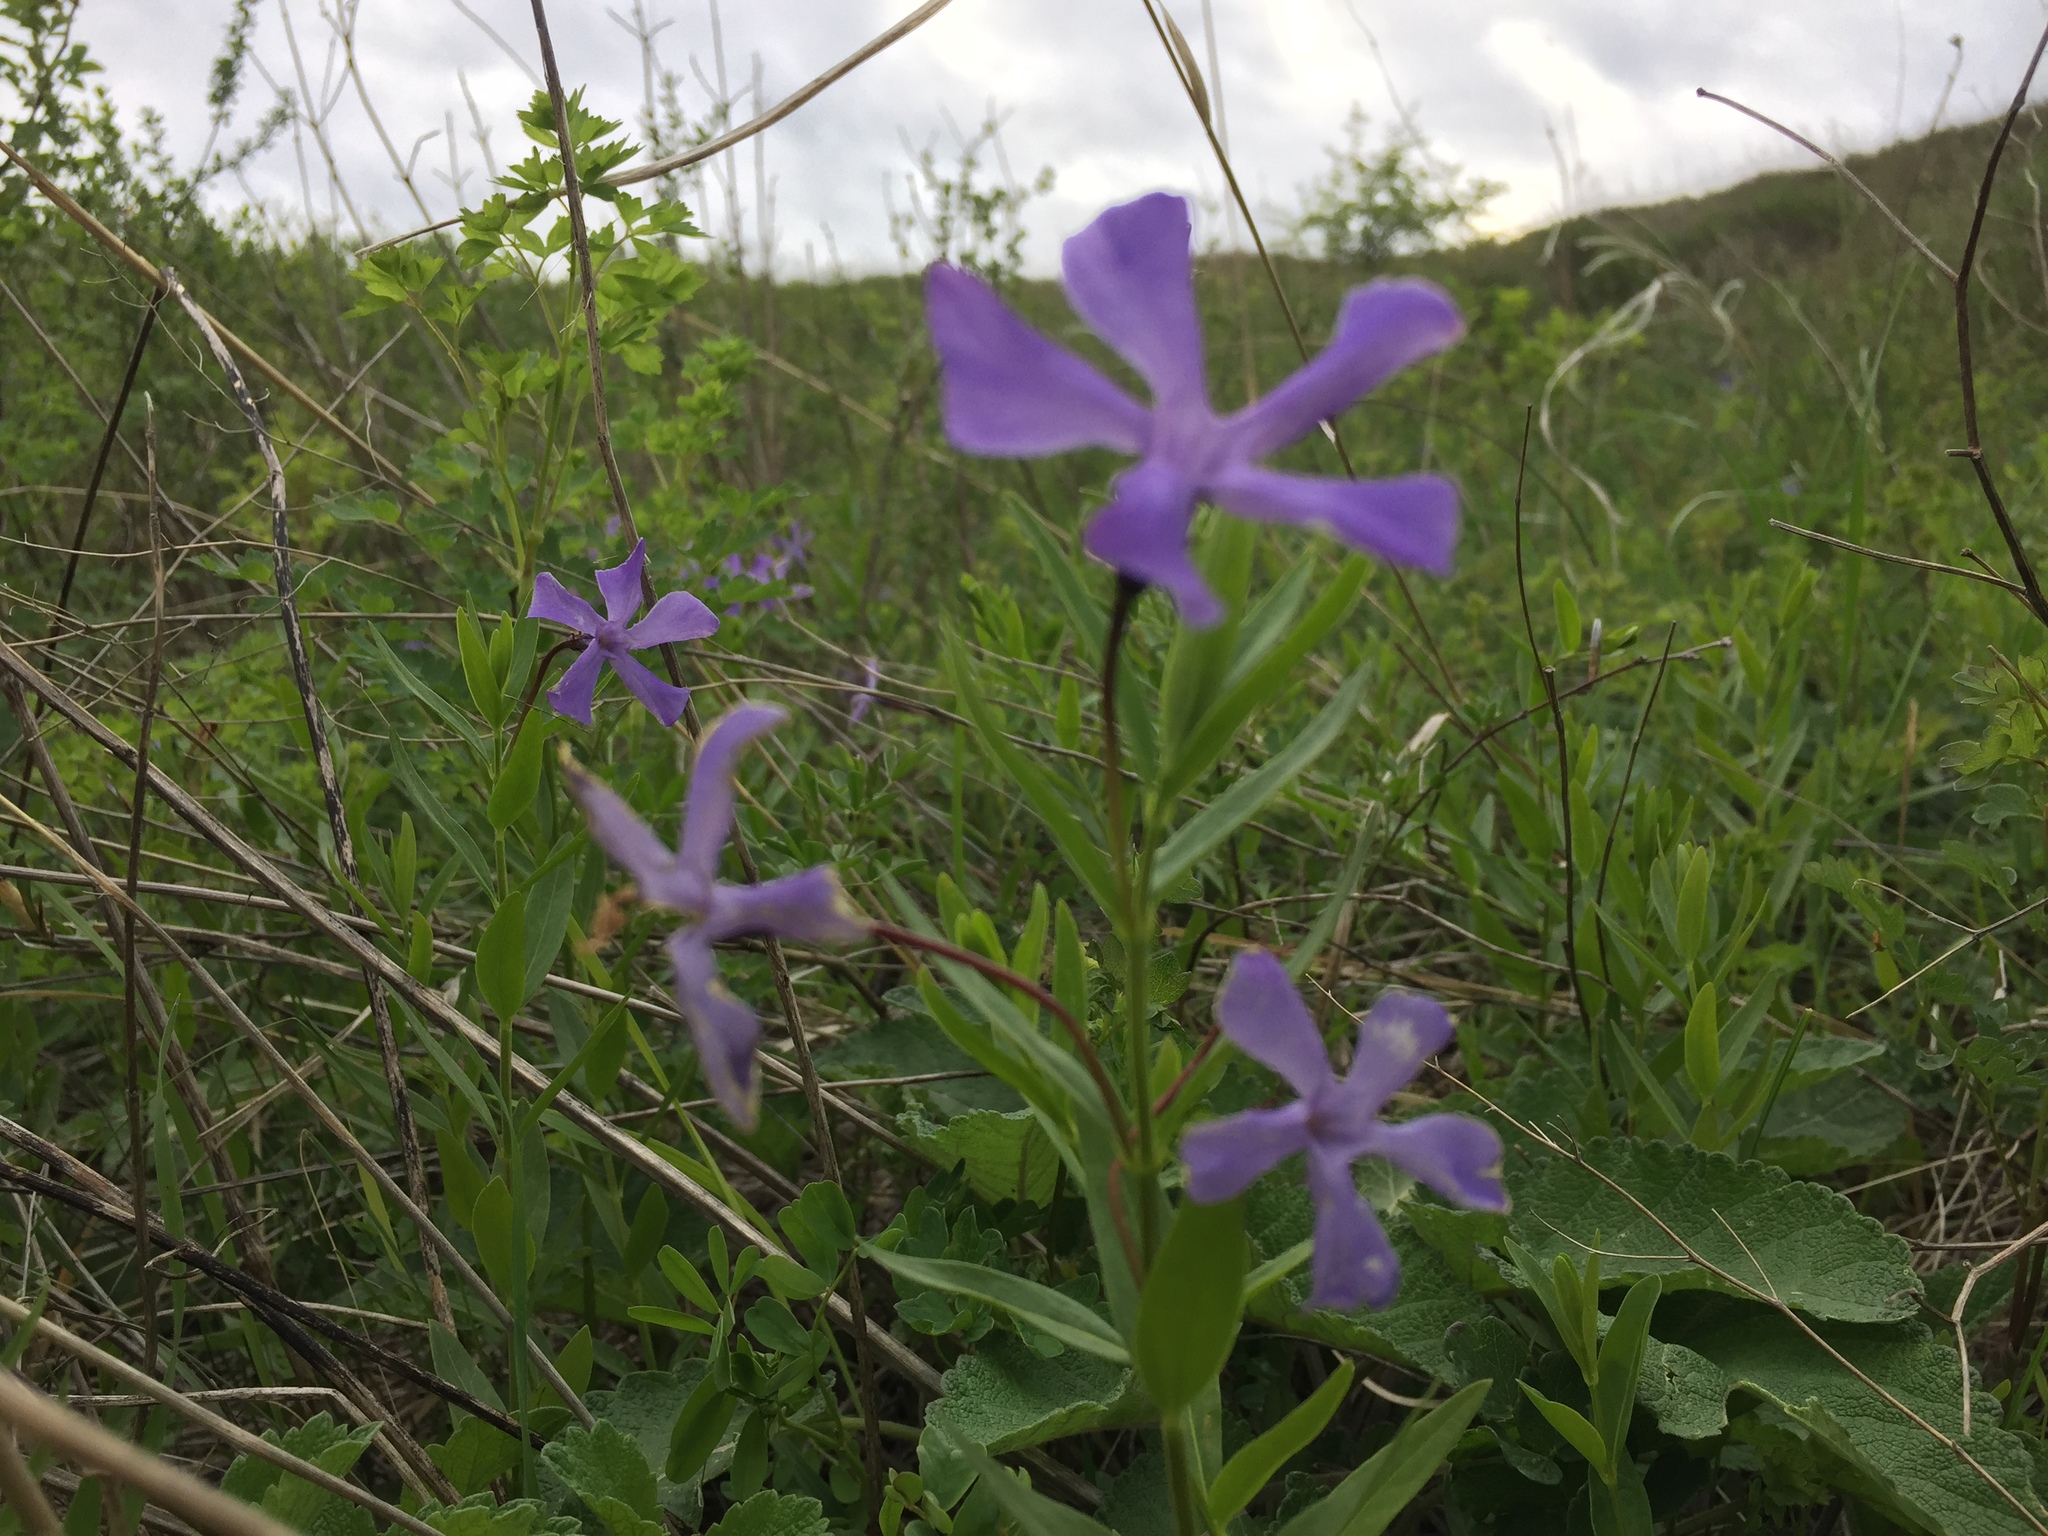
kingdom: Plantae
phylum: Tracheophyta
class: Magnoliopsida
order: Gentianales
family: Apocynaceae
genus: Vinca
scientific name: Vinca herbacea
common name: Herbaceous periwinkle
